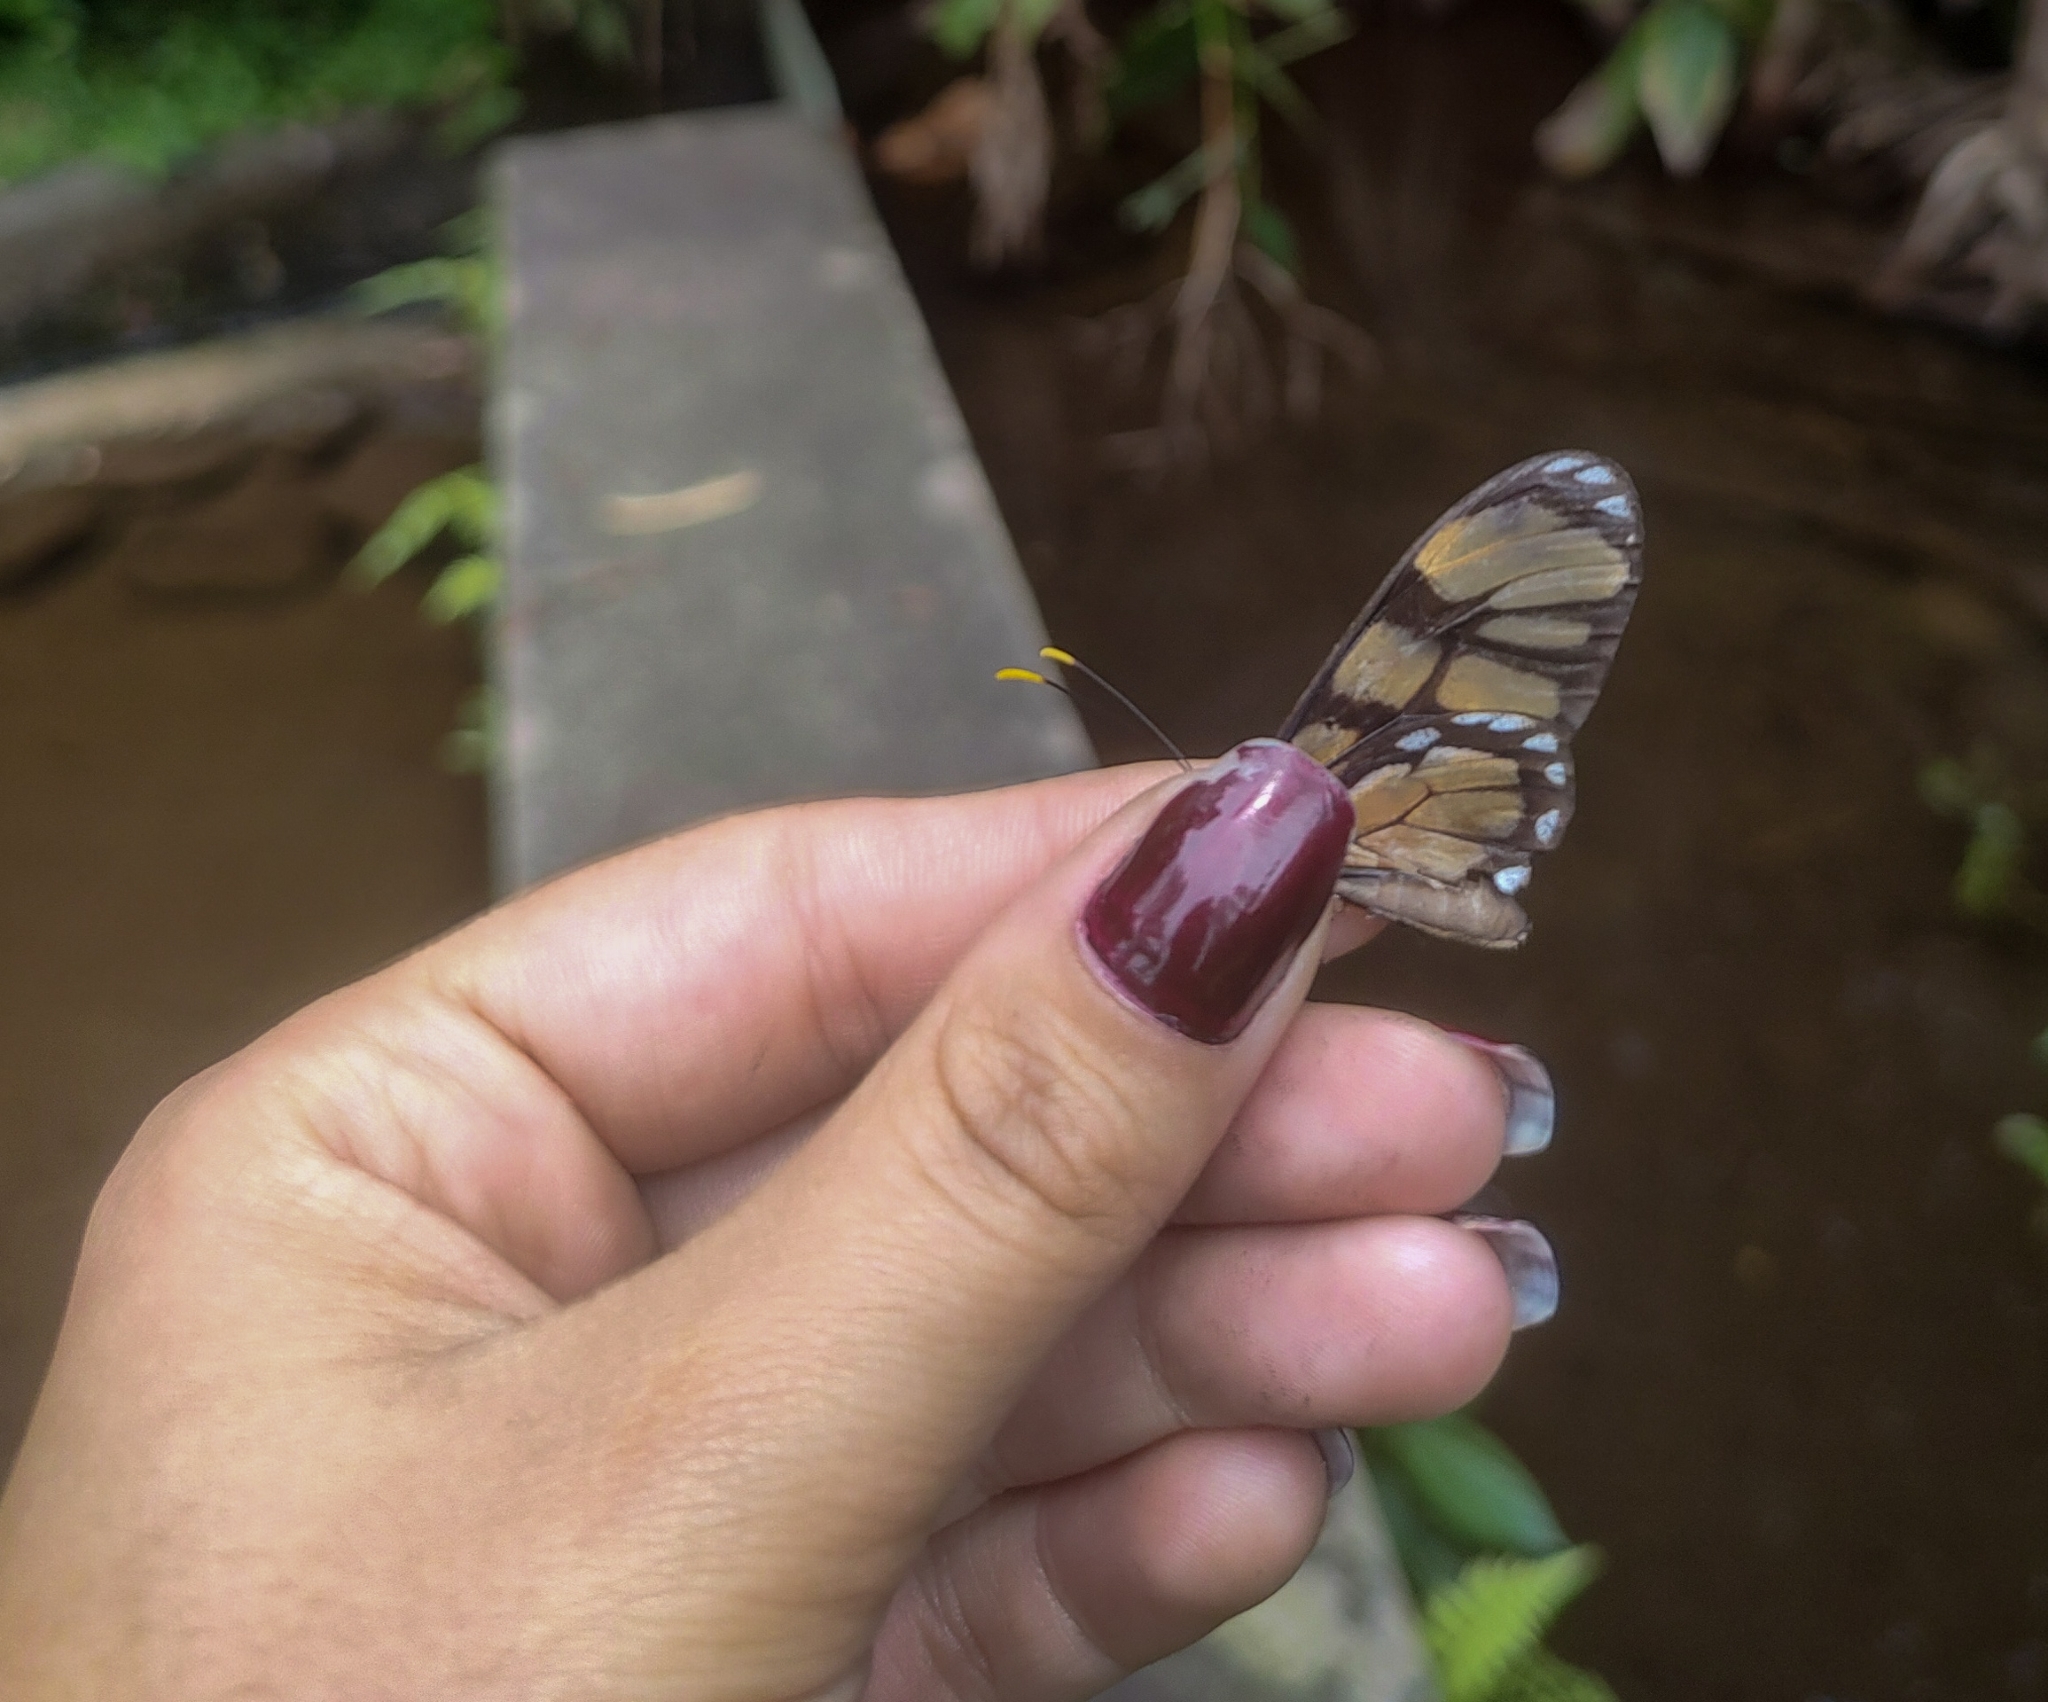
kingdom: Animalia
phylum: Arthropoda
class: Insecta
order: Lepidoptera
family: Nymphalidae
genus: Dircenna
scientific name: Dircenna dero
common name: Dero clearwing
